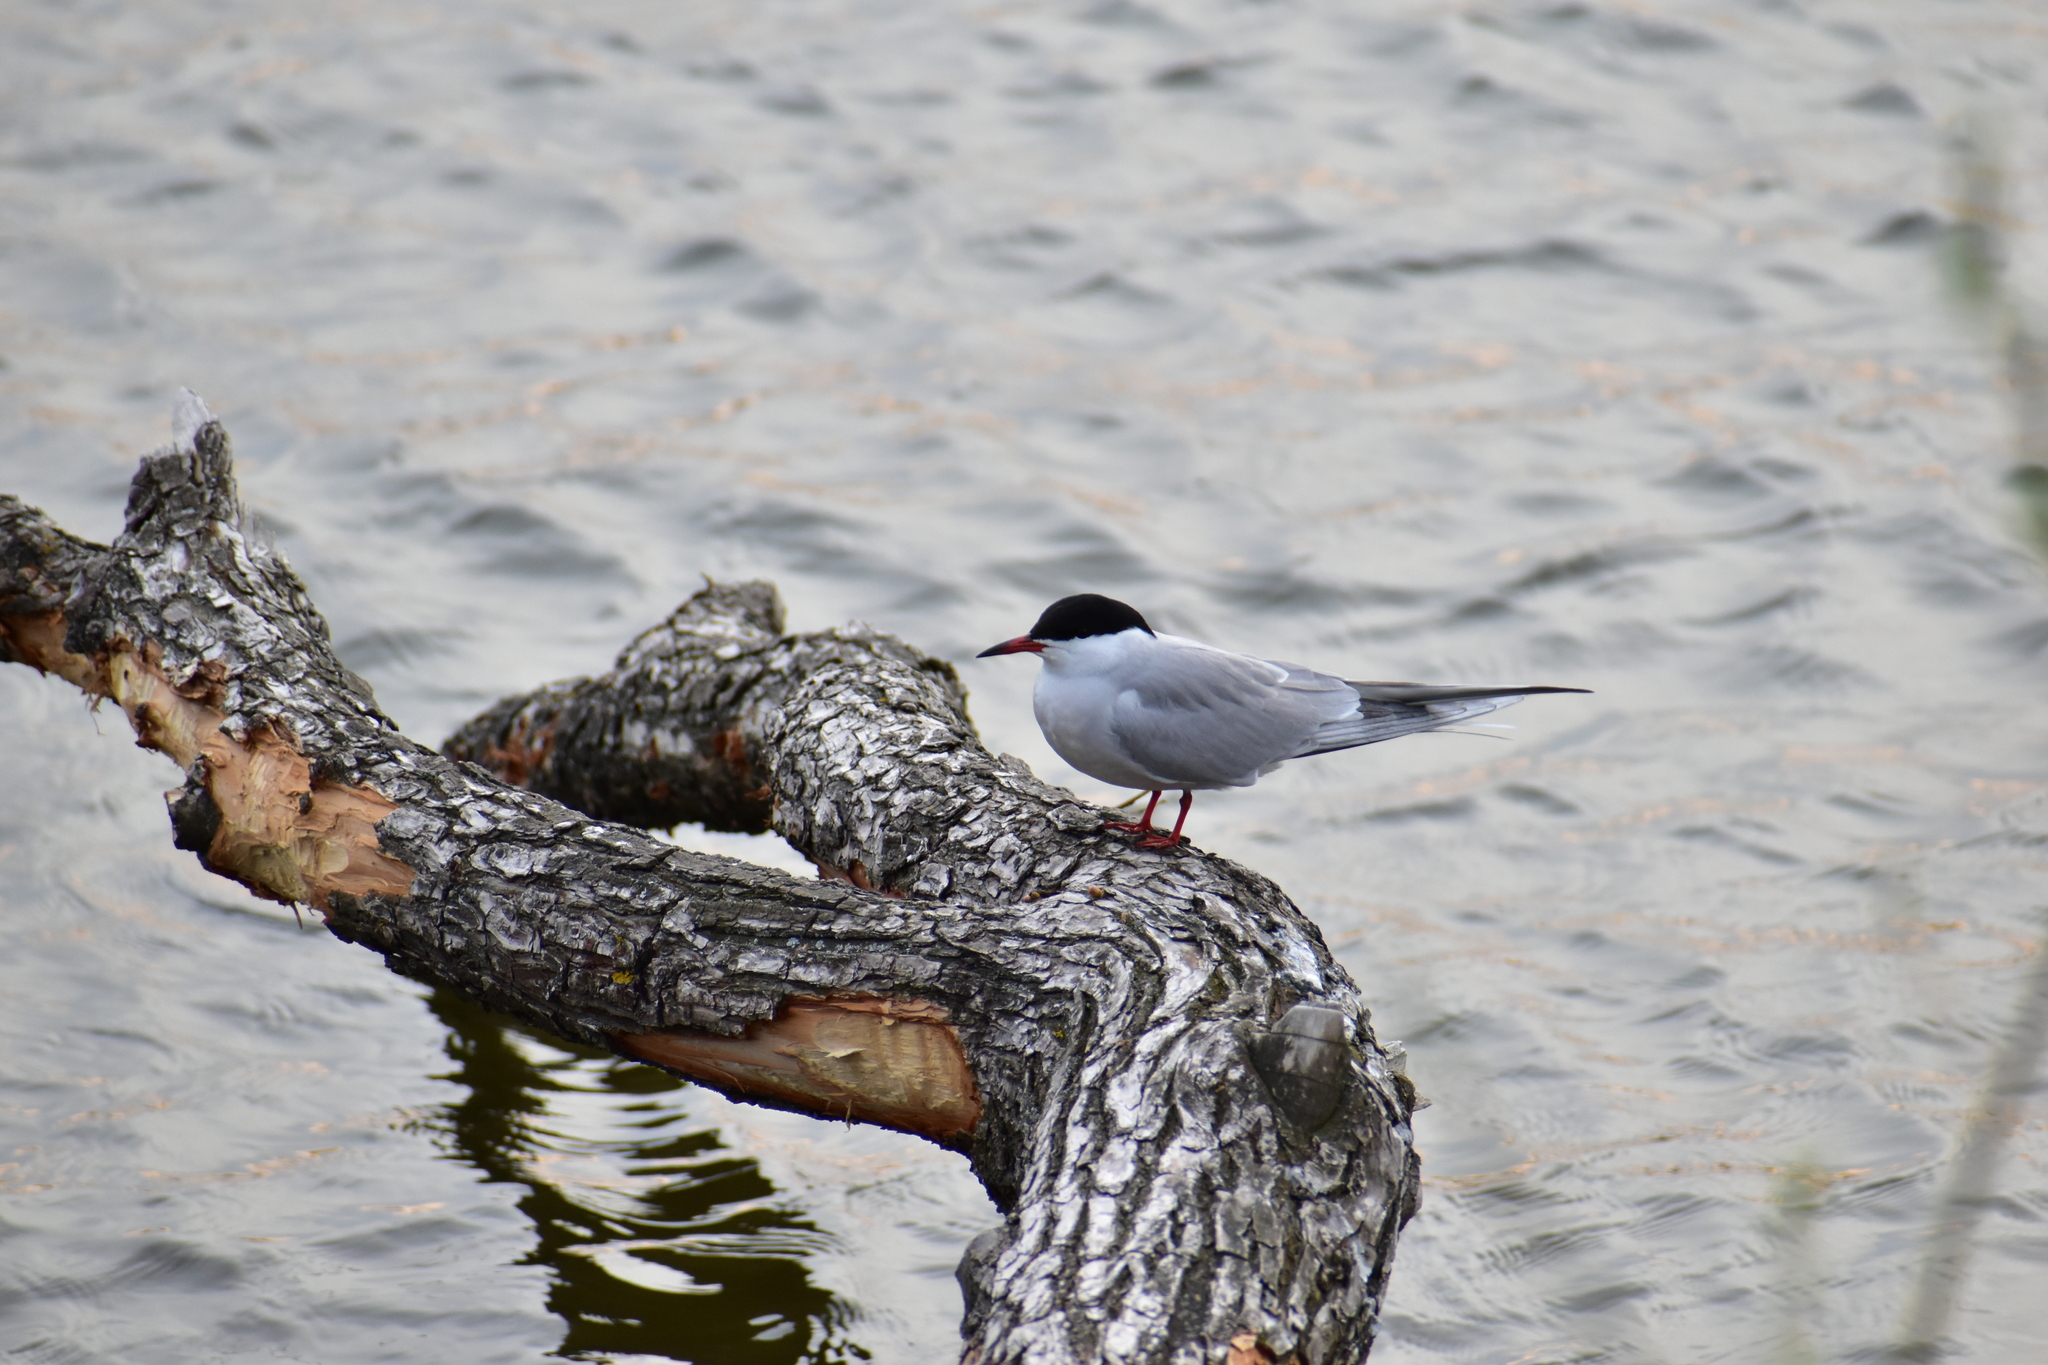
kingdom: Animalia
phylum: Chordata
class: Aves
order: Charadriiformes
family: Laridae
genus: Sterna
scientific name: Sterna hirundo
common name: Common tern
